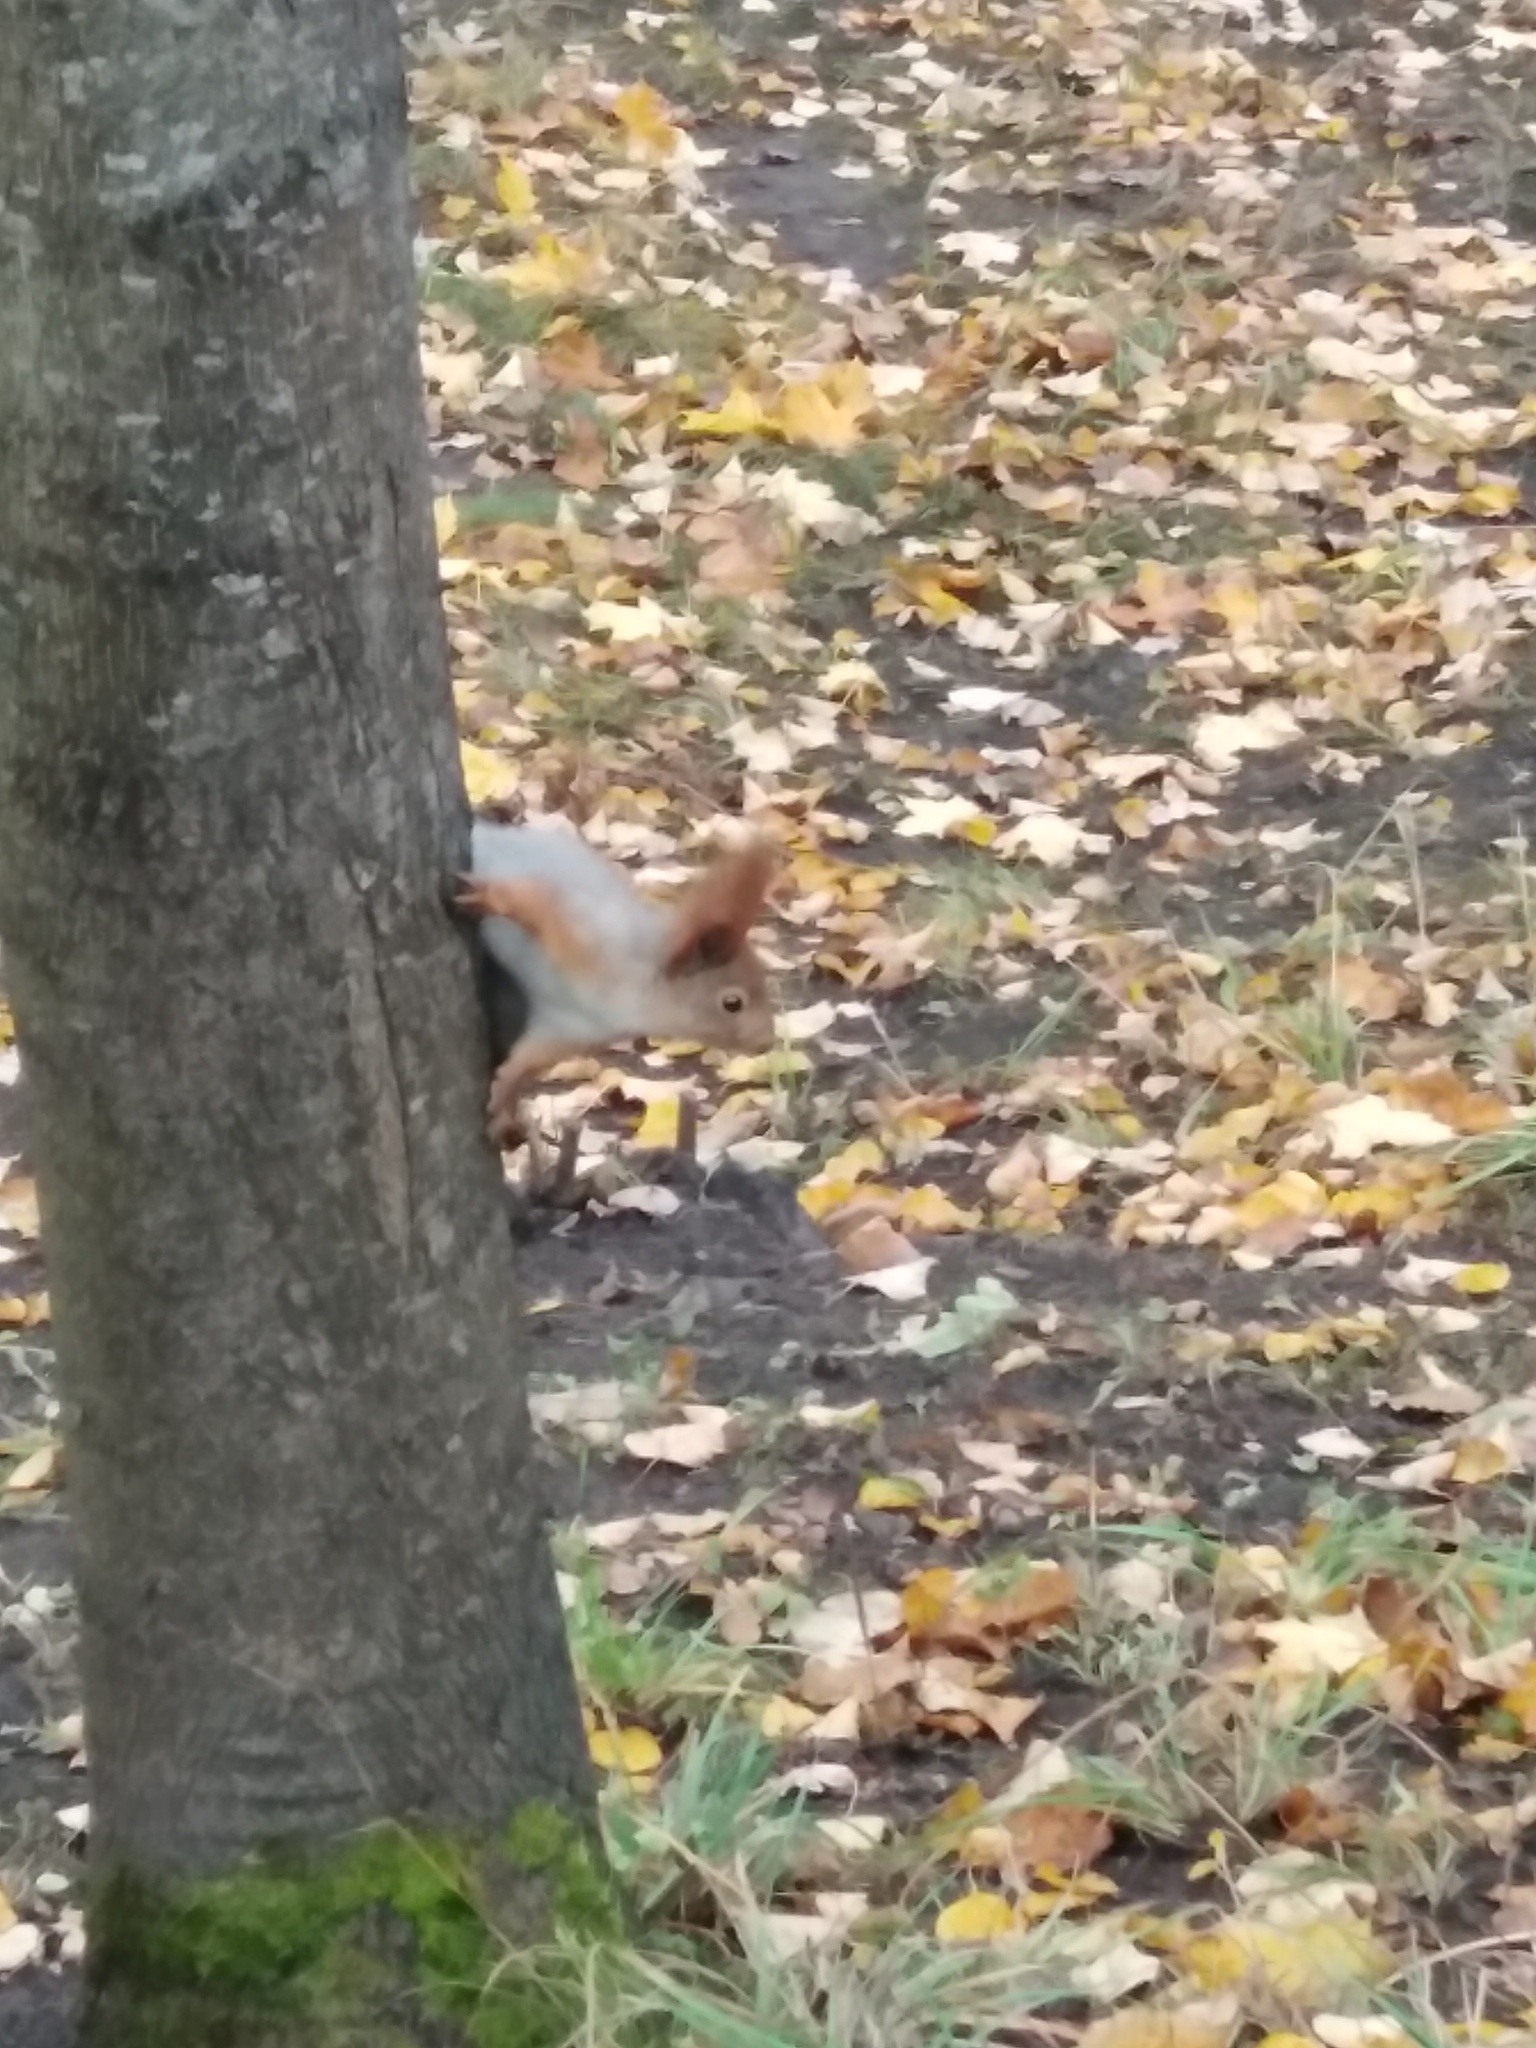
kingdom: Animalia
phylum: Chordata
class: Mammalia
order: Rodentia
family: Sciuridae
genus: Sciurus
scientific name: Sciurus vulgaris
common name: Eurasian red squirrel
